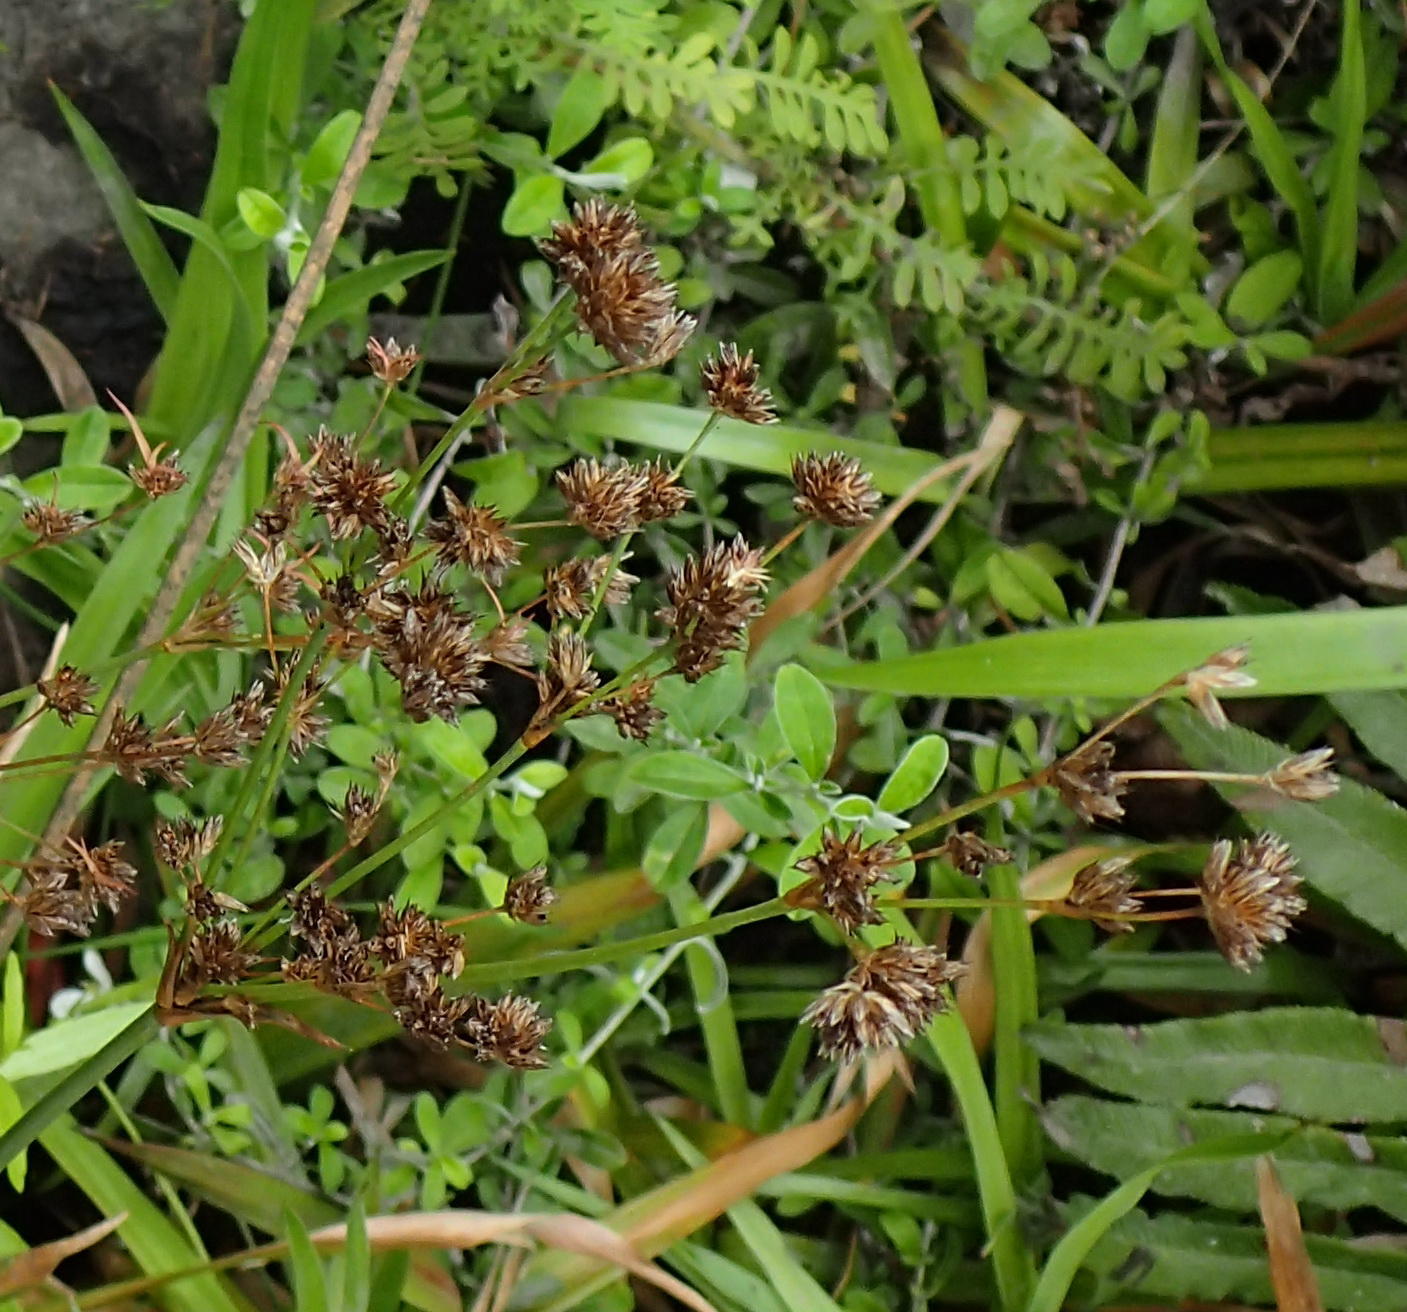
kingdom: Plantae
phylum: Tracheophyta
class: Liliopsida
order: Poales
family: Juncaceae
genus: Juncus
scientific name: Juncus lomatophyllus
